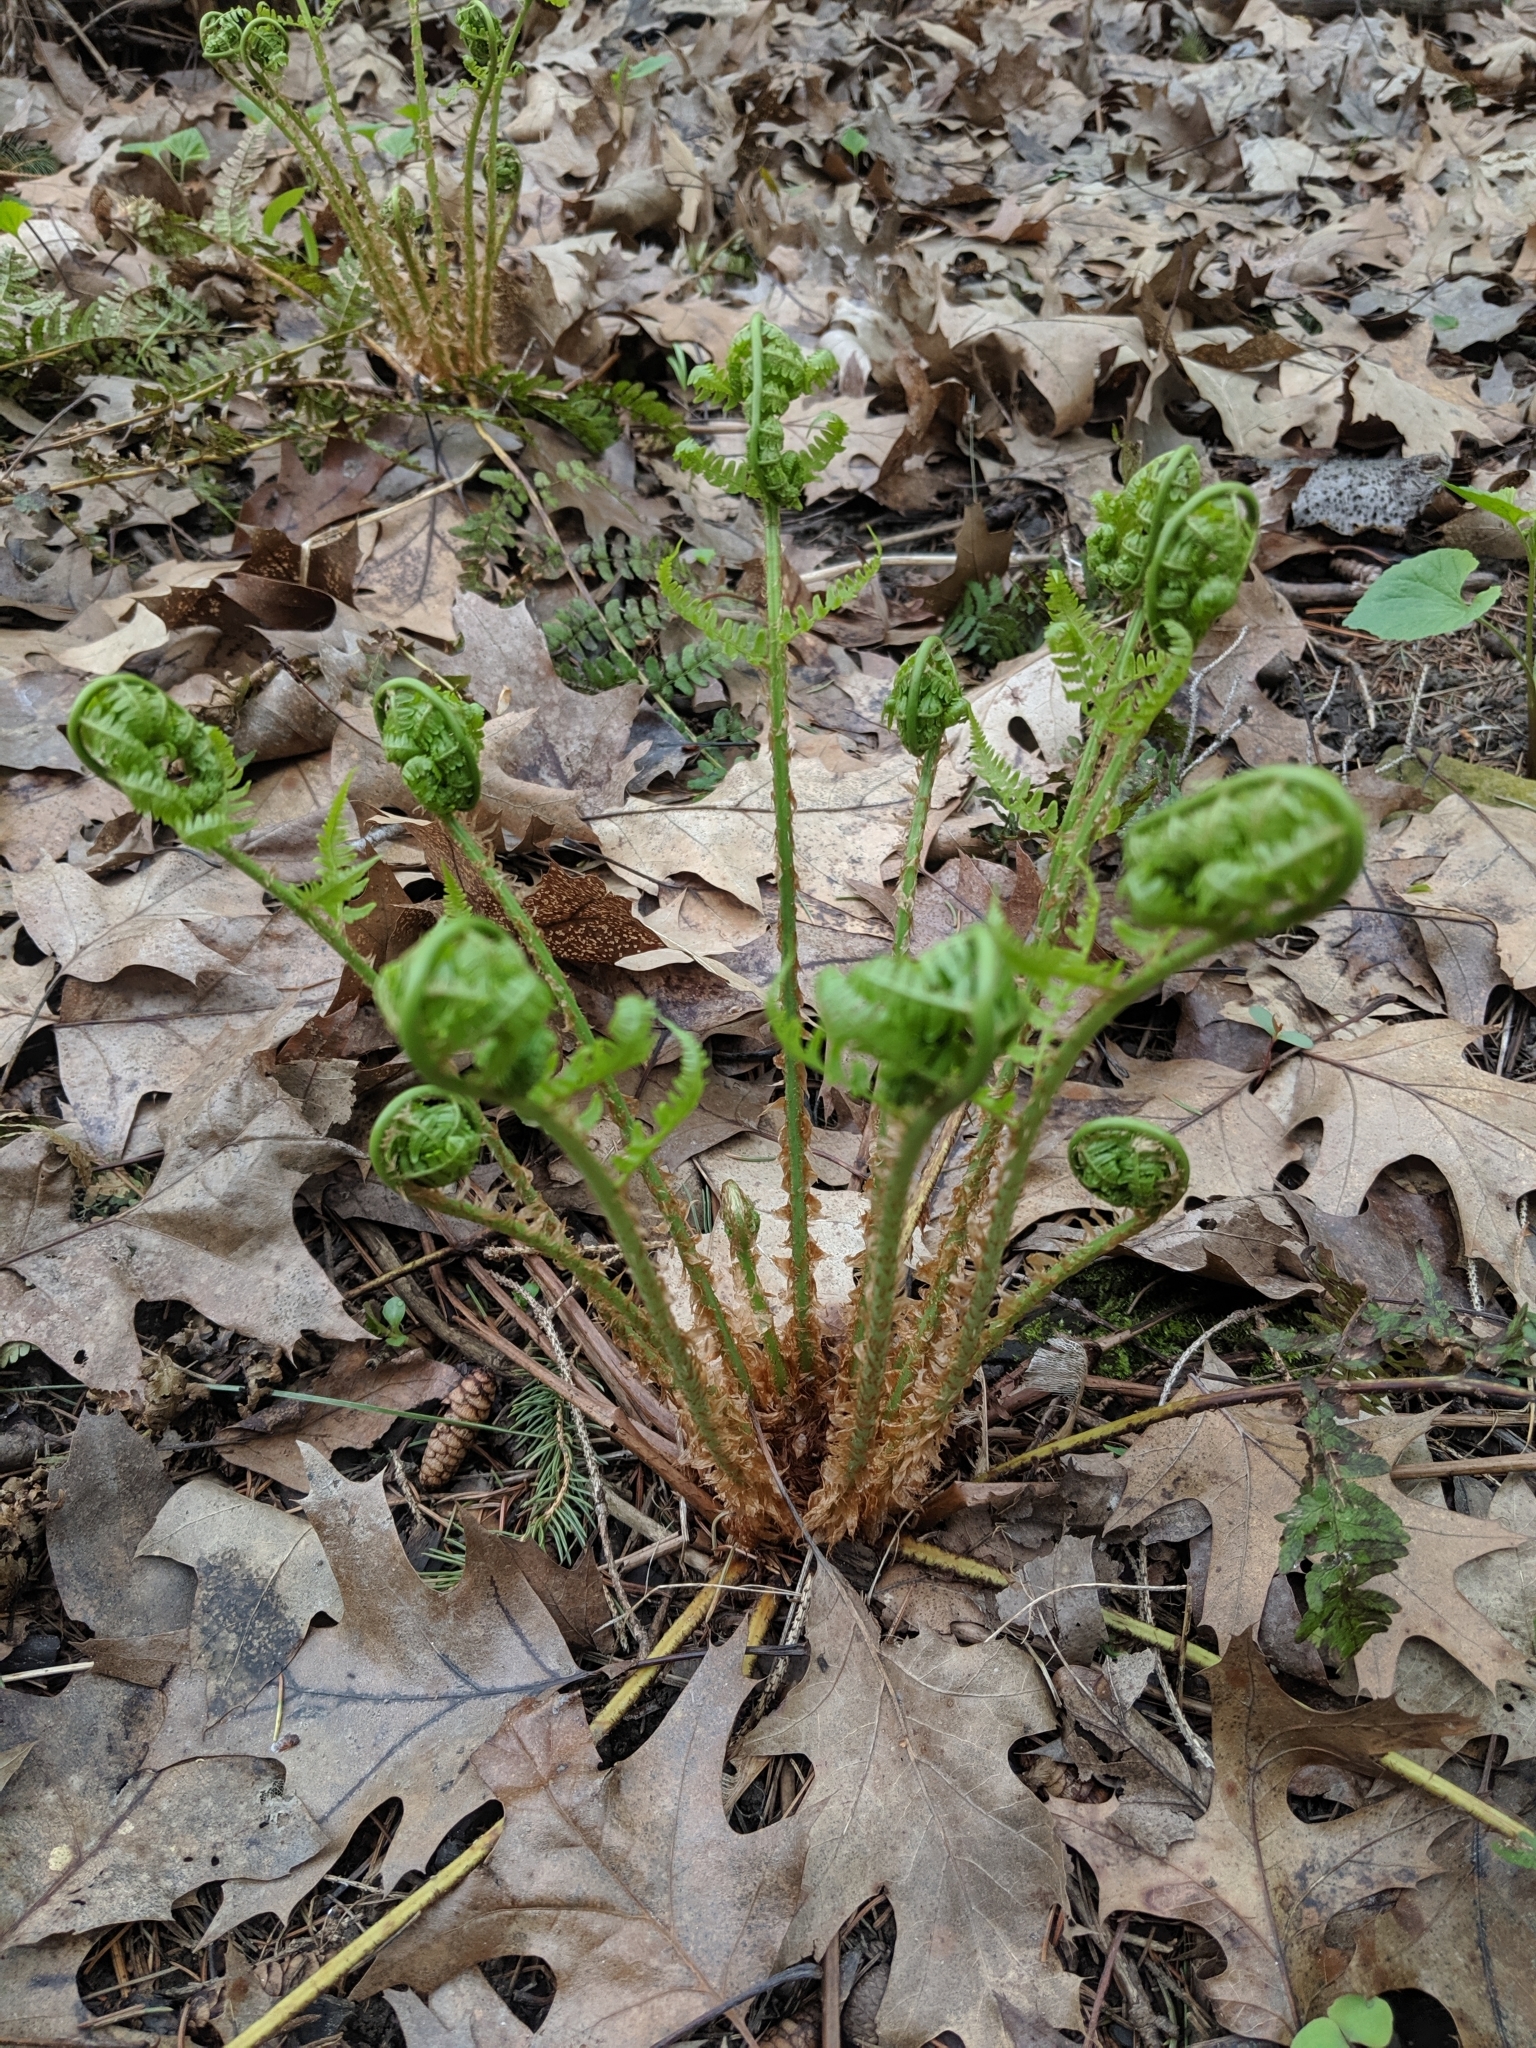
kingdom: Plantae
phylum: Tracheophyta
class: Polypodiopsida
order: Polypodiales
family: Dryopteridaceae
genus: Dryopteris
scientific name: Dryopteris marginalis
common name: Marginal wood fern
